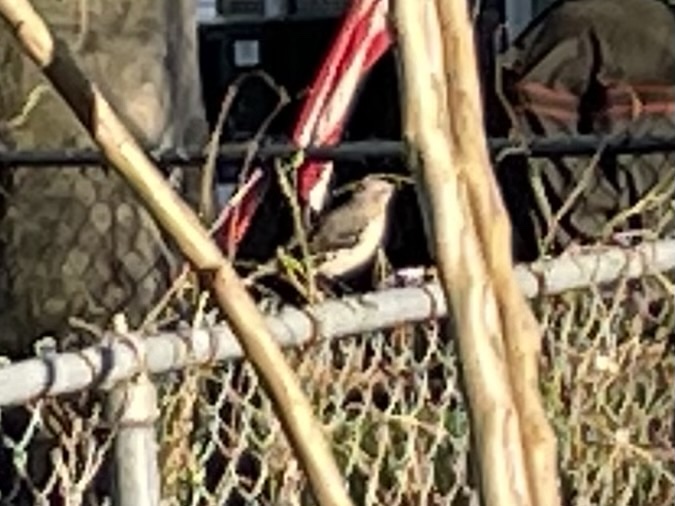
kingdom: Animalia
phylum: Chordata
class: Aves
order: Passeriformes
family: Mimidae
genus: Mimus
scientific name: Mimus polyglottos
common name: Northern mockingbird
